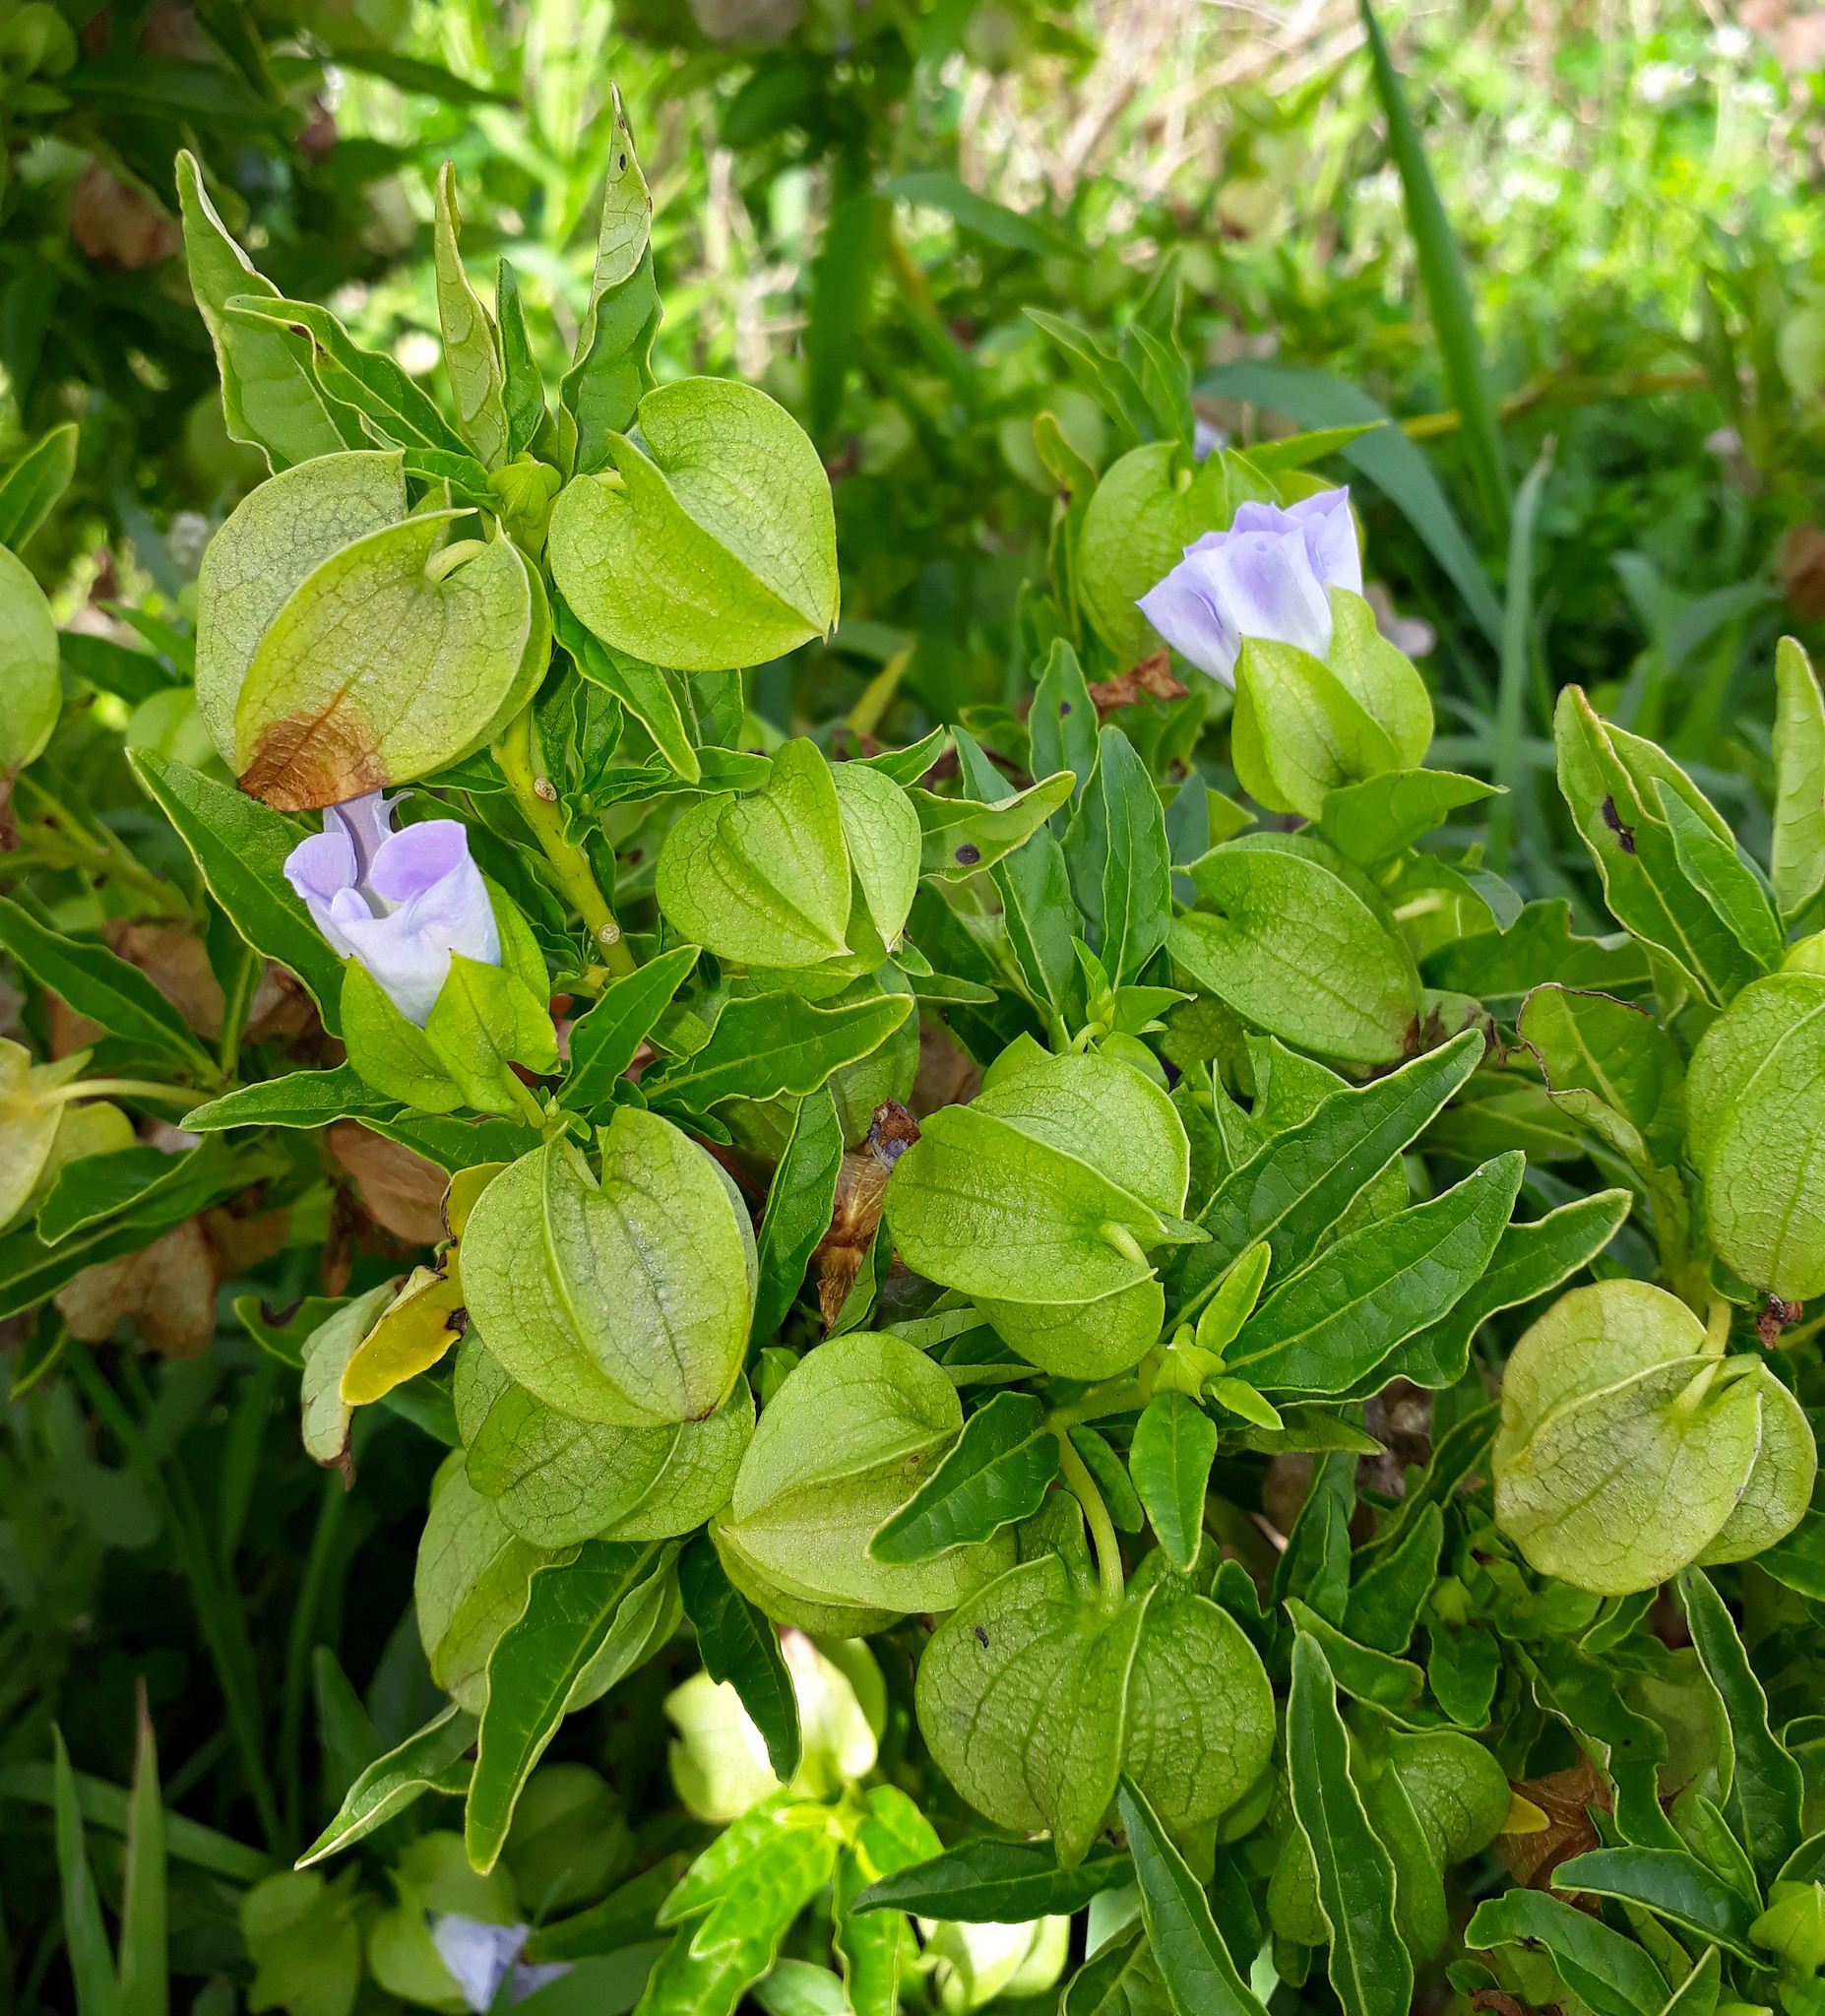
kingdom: Plantae
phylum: Tracheophyta
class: Magnoliopsida
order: Solanales
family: Solanaceae
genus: Nicandra
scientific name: Nicandra physalodes
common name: Apple-of-peru
